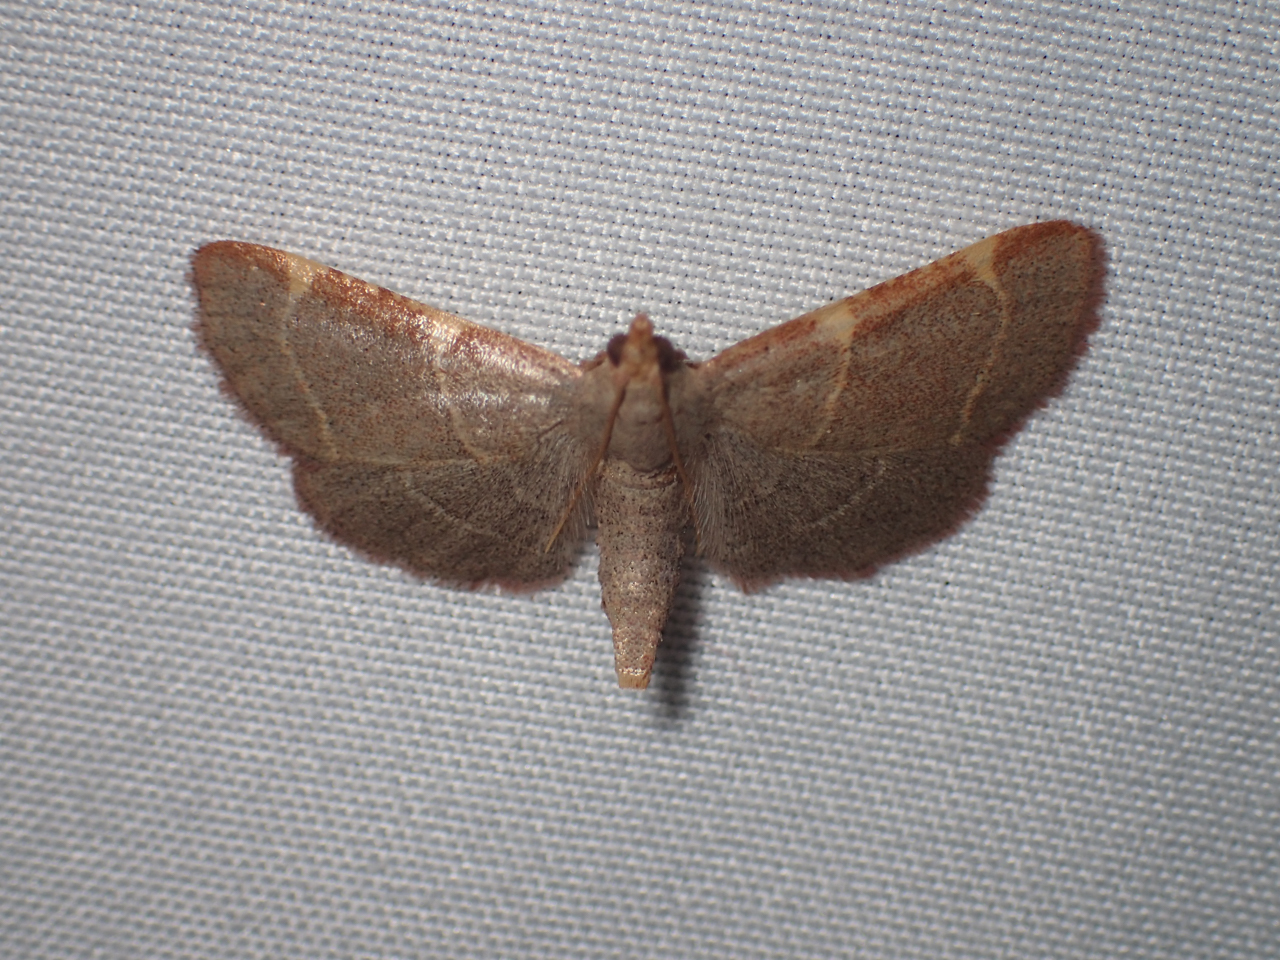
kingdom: Animalia
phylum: Arthropoda
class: Insecta
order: Lepidoptera
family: Pyralidae
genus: Hypsopygia
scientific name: Hypsopygia binodulalis
